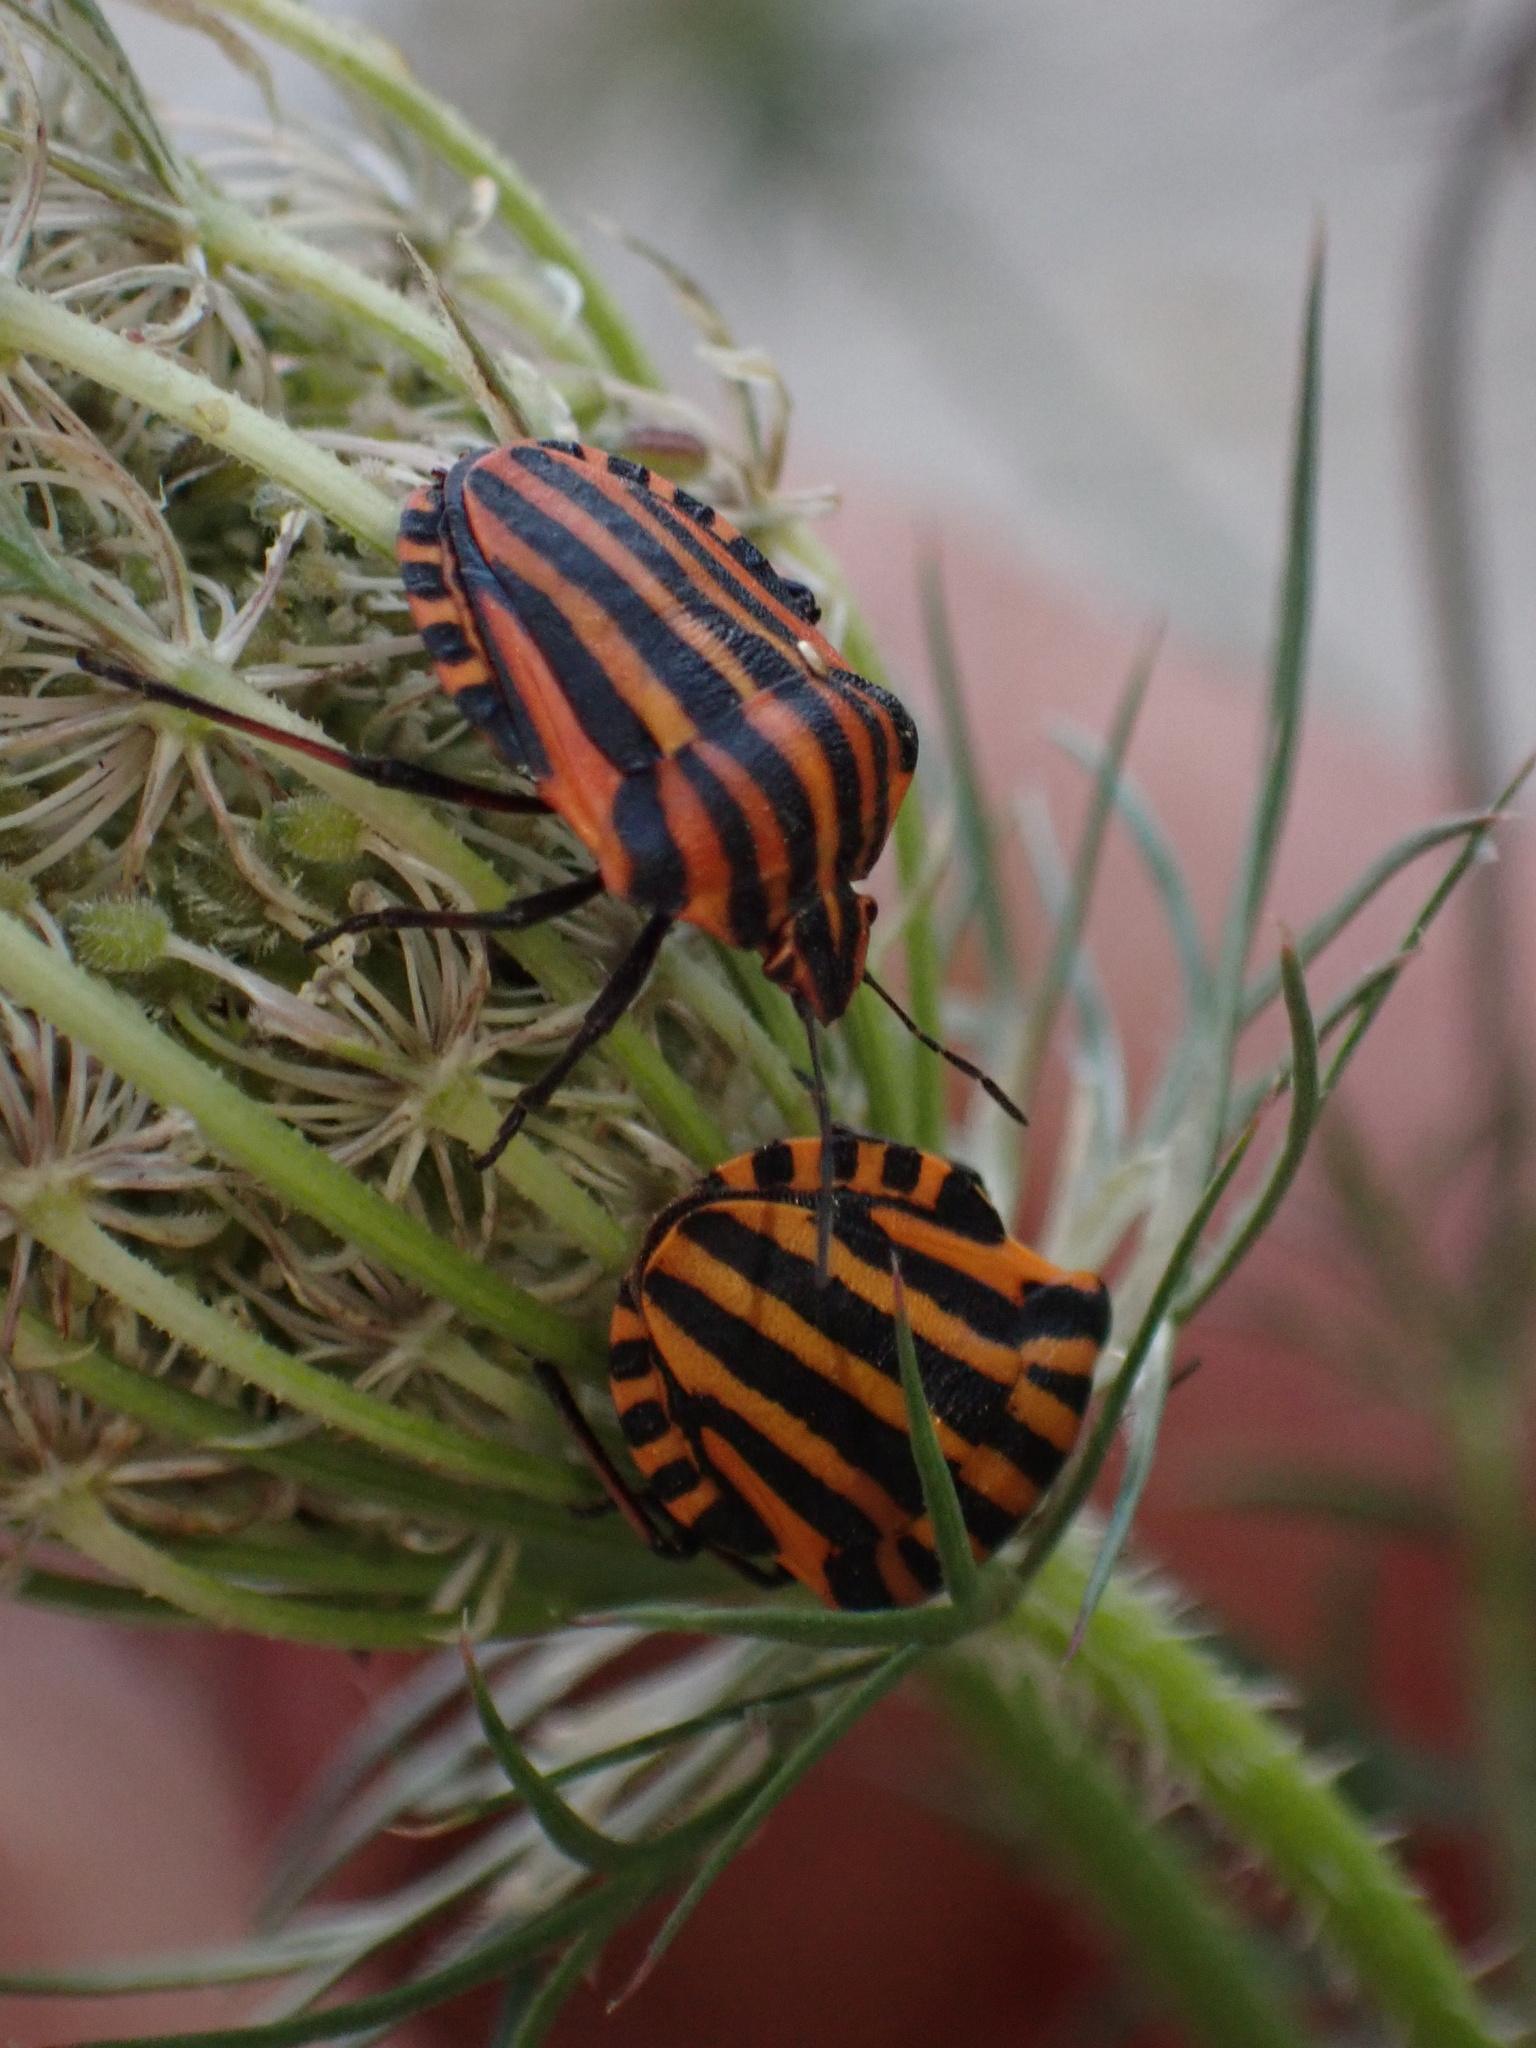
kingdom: Animalia
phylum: Arthropoda
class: Insecta
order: Hemiptera
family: Pentatomidae
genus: Graphosoma
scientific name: Graphosoma italicum
